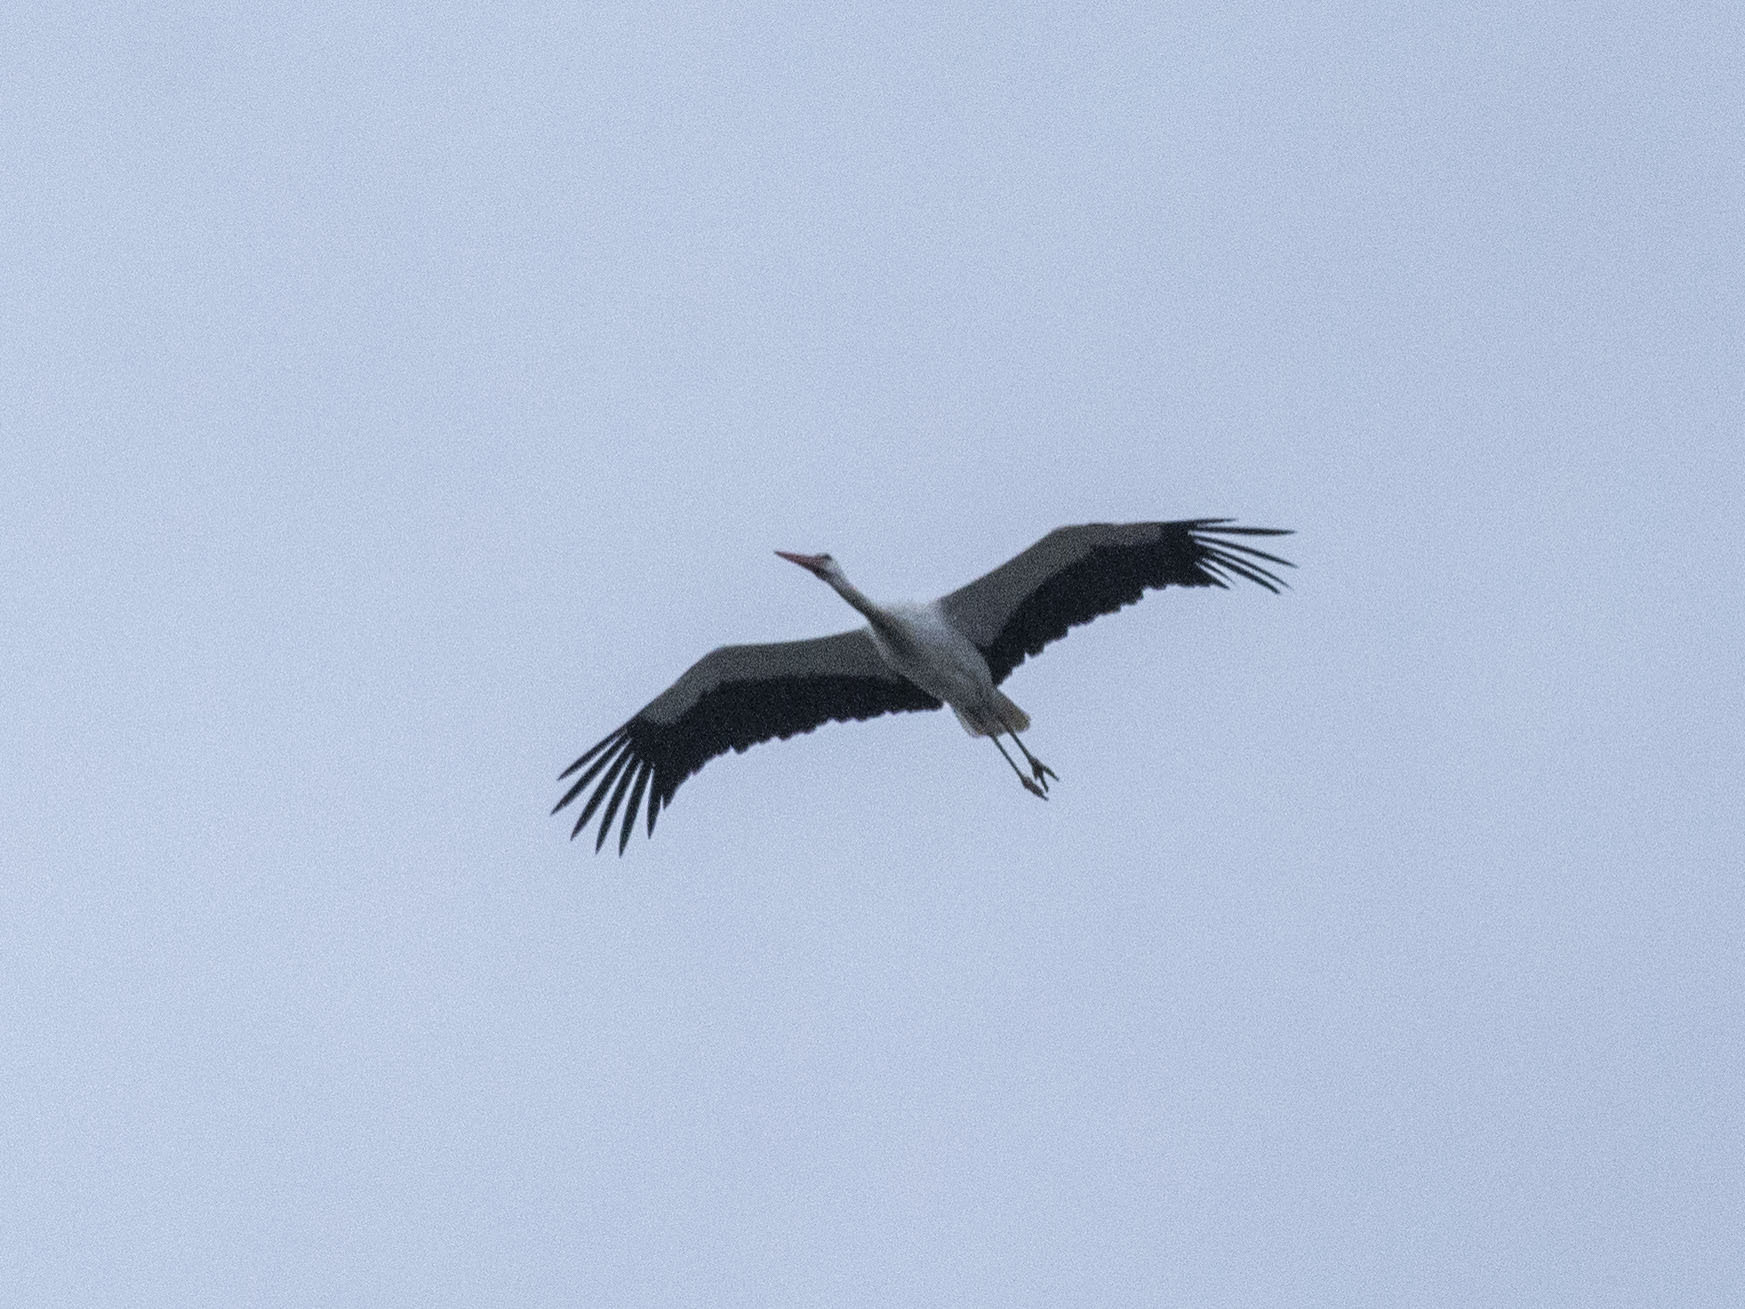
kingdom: Animalia
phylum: Chordata
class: Aves
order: Ciconiiformes
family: Ciconiidae
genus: Ciconia
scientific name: Ciconia ciconia
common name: White stork
